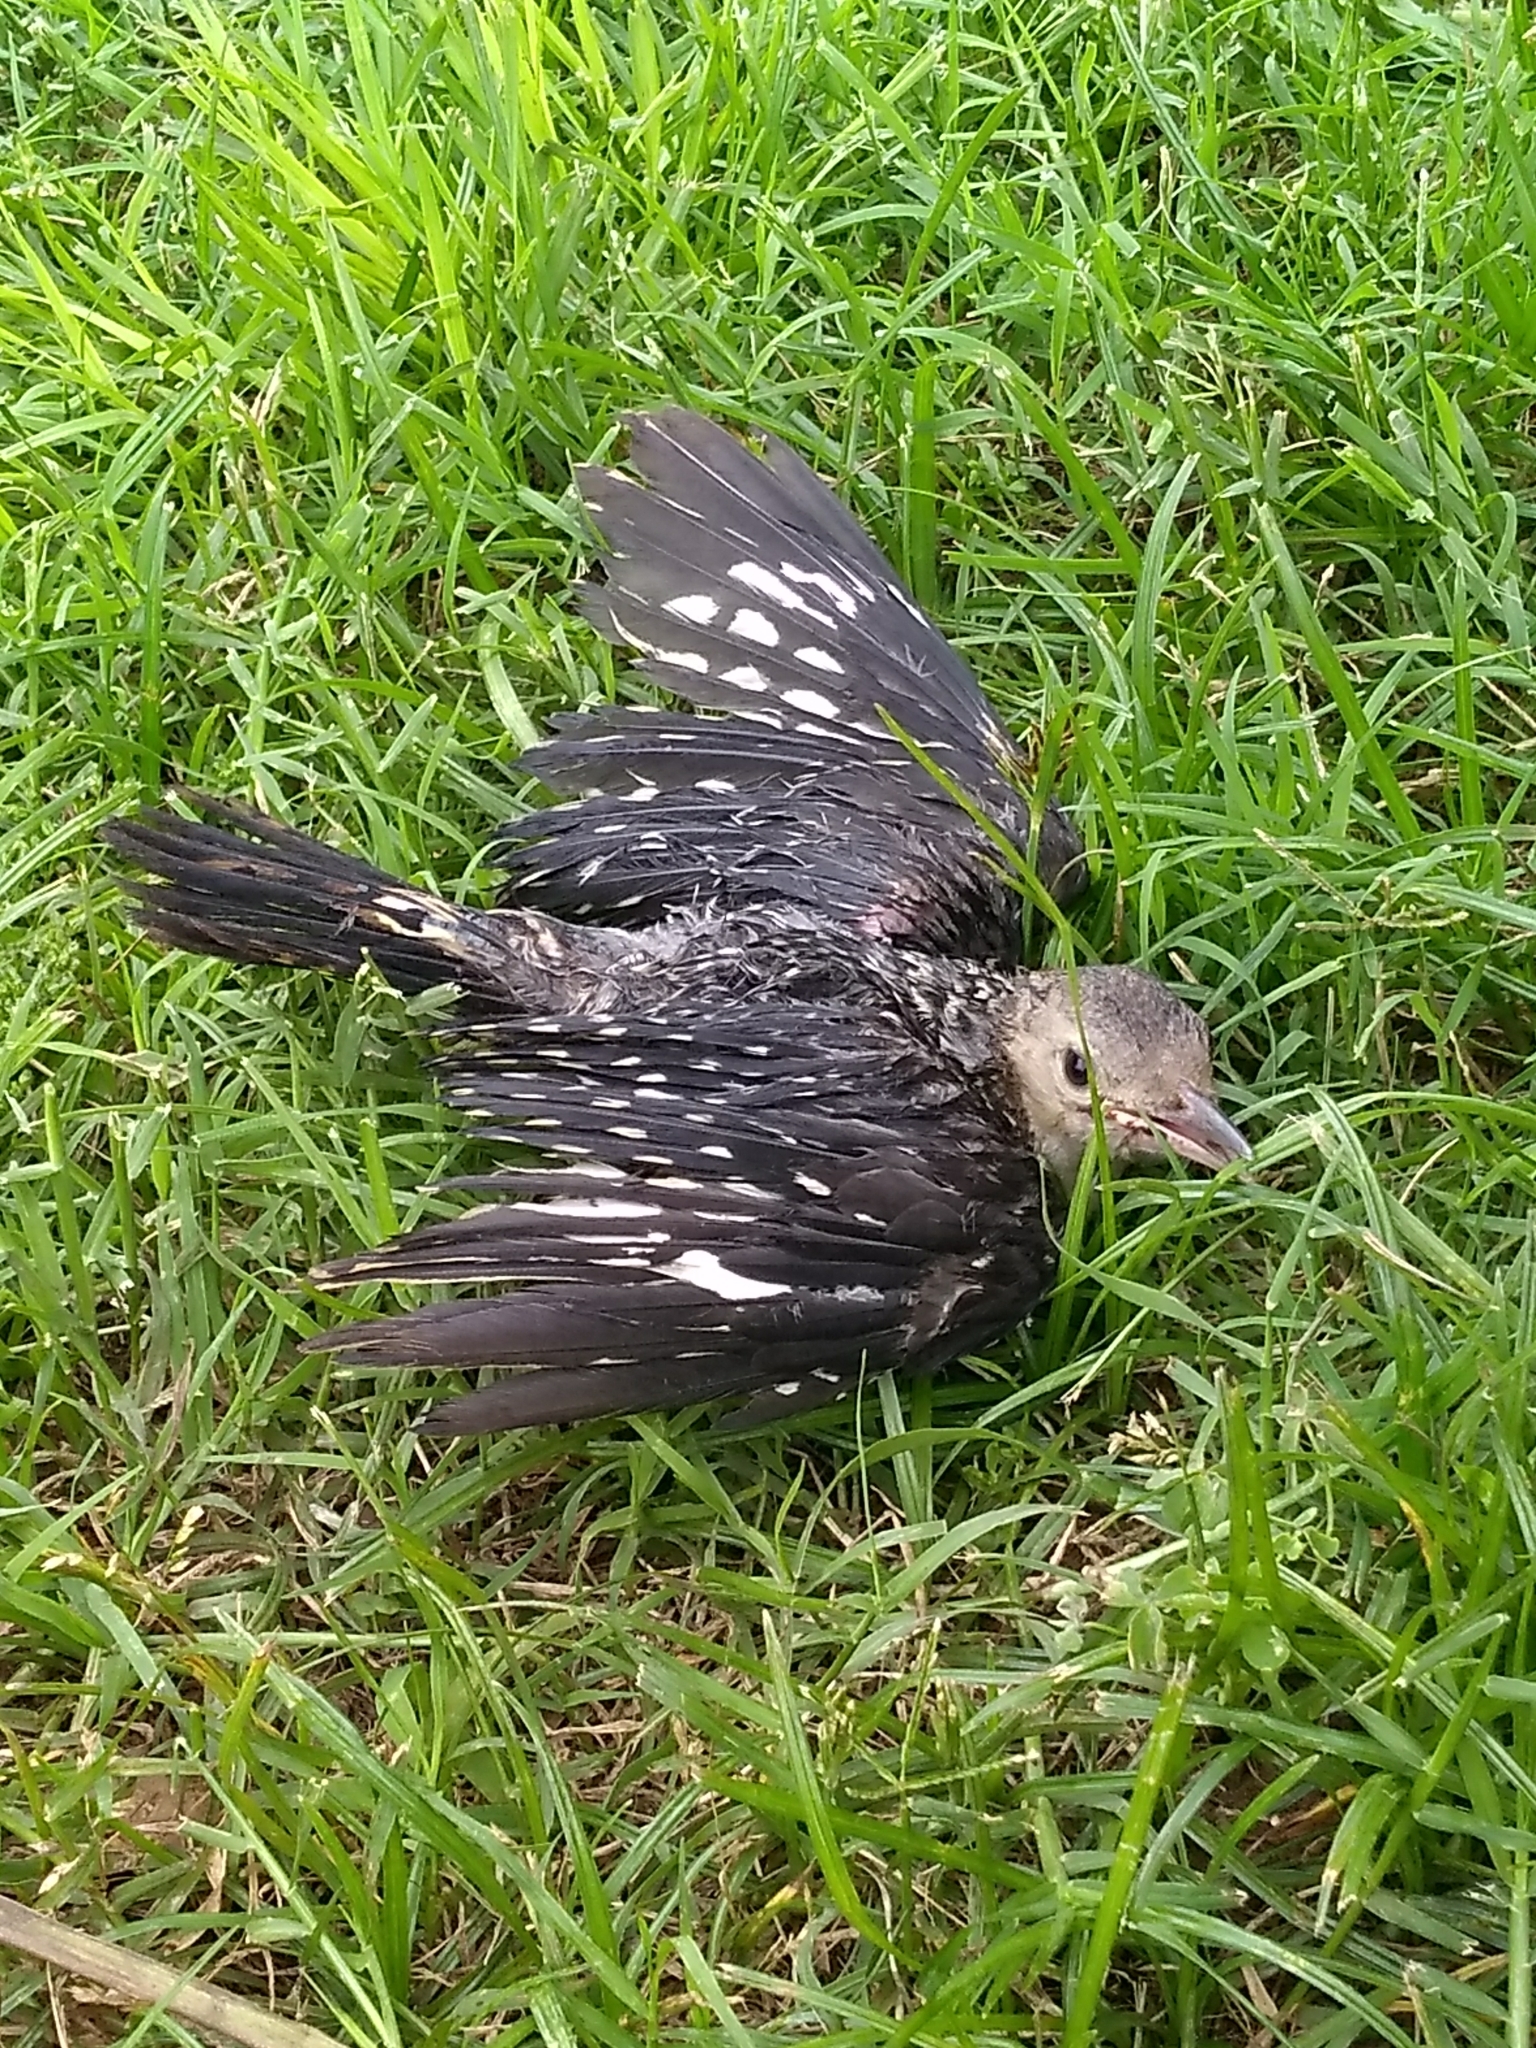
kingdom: Animalia
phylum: Chordata
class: Aves
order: Piciformes
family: Picidae
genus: Melanerpes
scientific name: Melanerpes carolinus
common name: Red-bellied woodpecker
